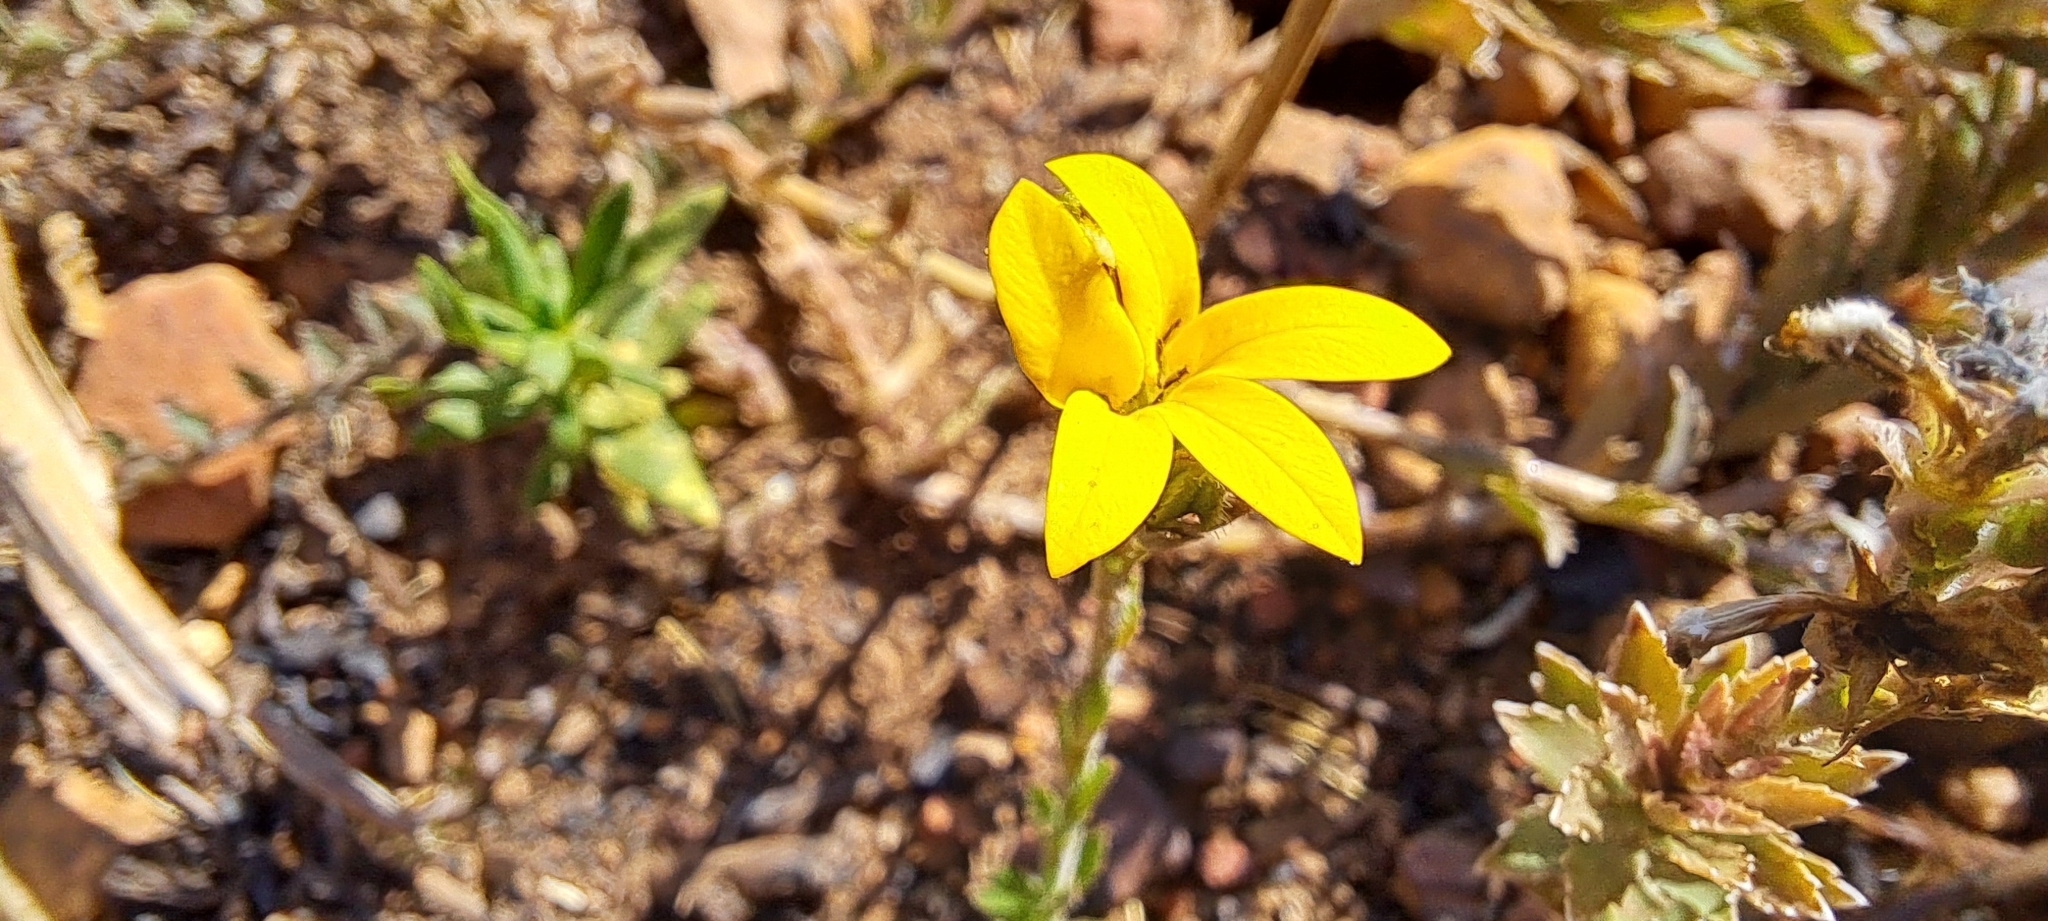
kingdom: Plantae
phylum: Tracheophyta
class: Magnoliopsida
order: Asterales
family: Campanulaceae
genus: Monopsis
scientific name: Monopsis lutea
